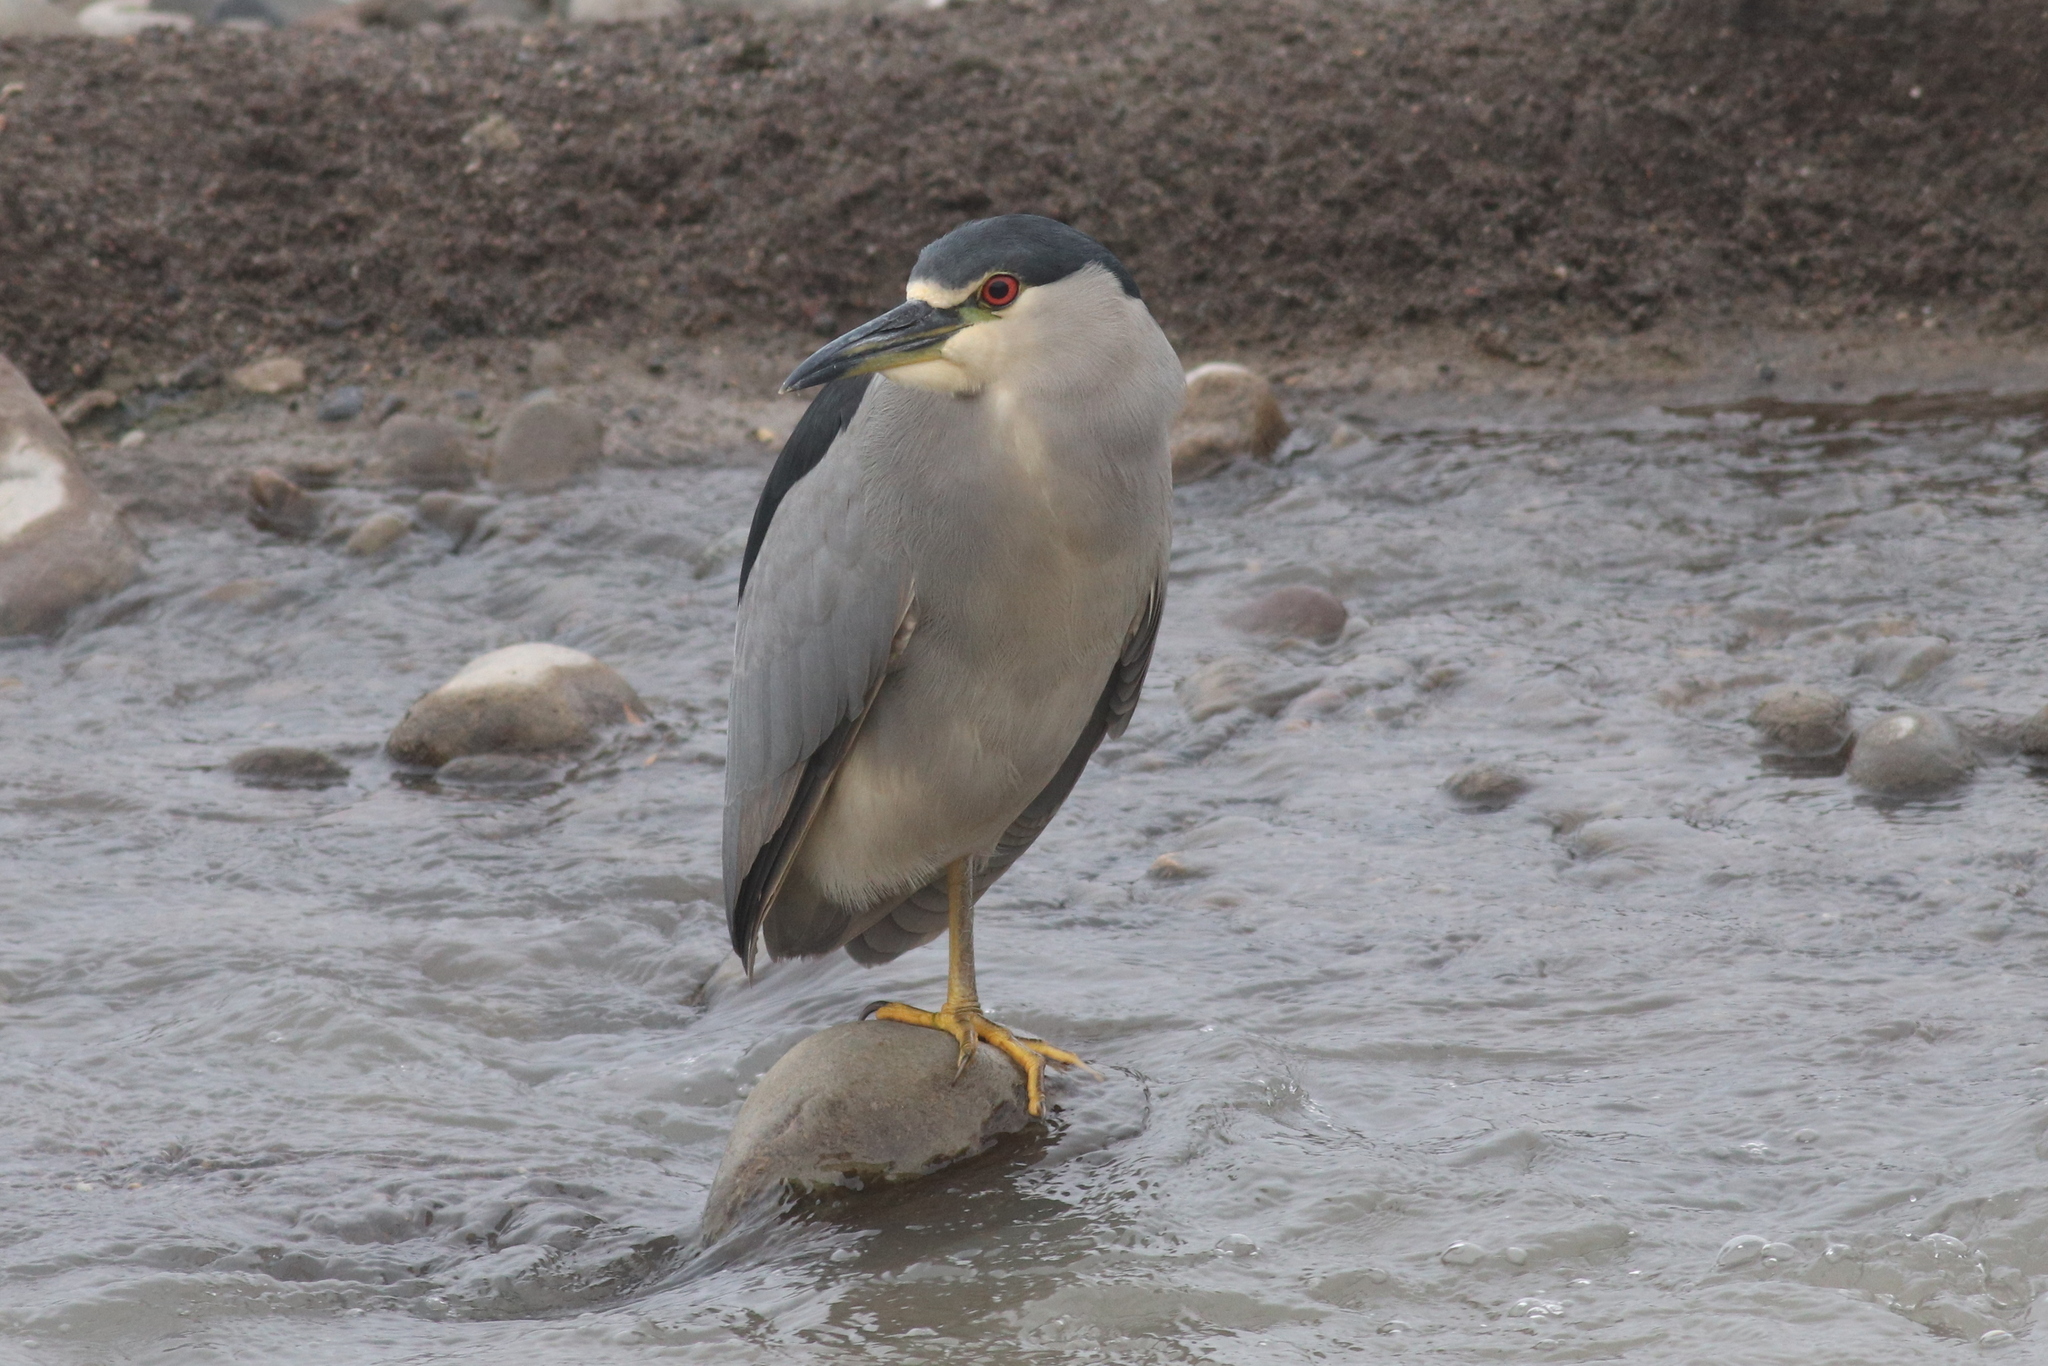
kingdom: Animalia
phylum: Chordata
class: Aves
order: Pelecaniformes
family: Ardeidae
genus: Nycticorax
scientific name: Nycticorax nycticorax
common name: Black-crowned night heron
